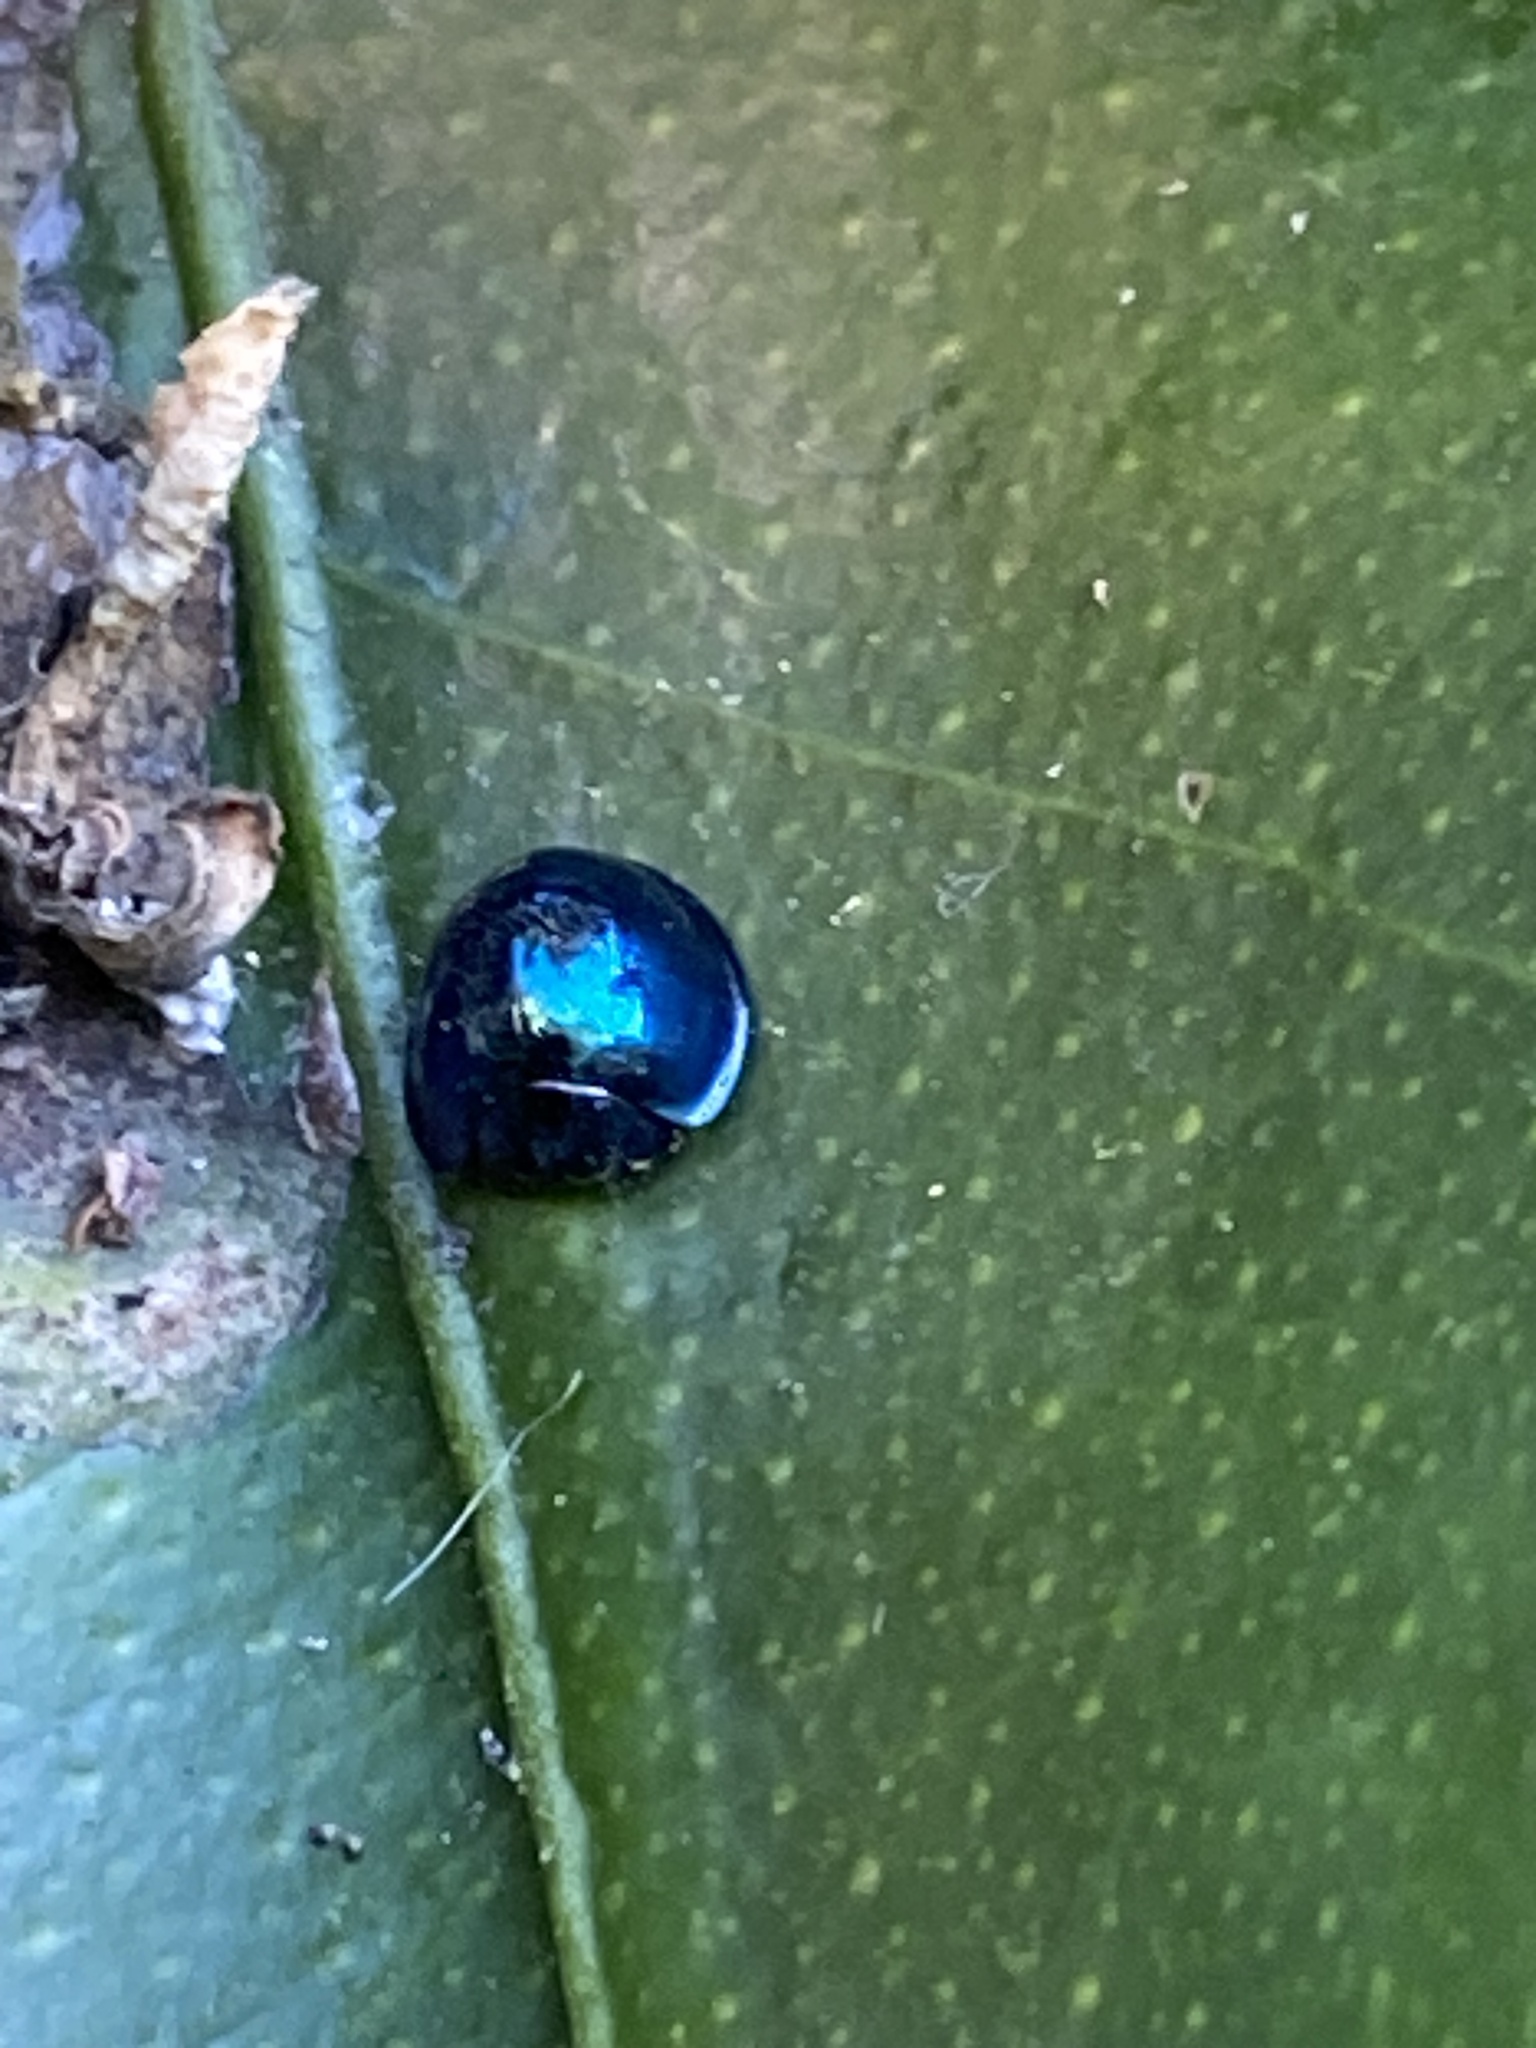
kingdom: Animalia
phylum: Arthropoda
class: Insecta
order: Coleoptera
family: Coccinellidae
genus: Halmus
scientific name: Halmus chalybeus
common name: Steel blue ladybird beetle
